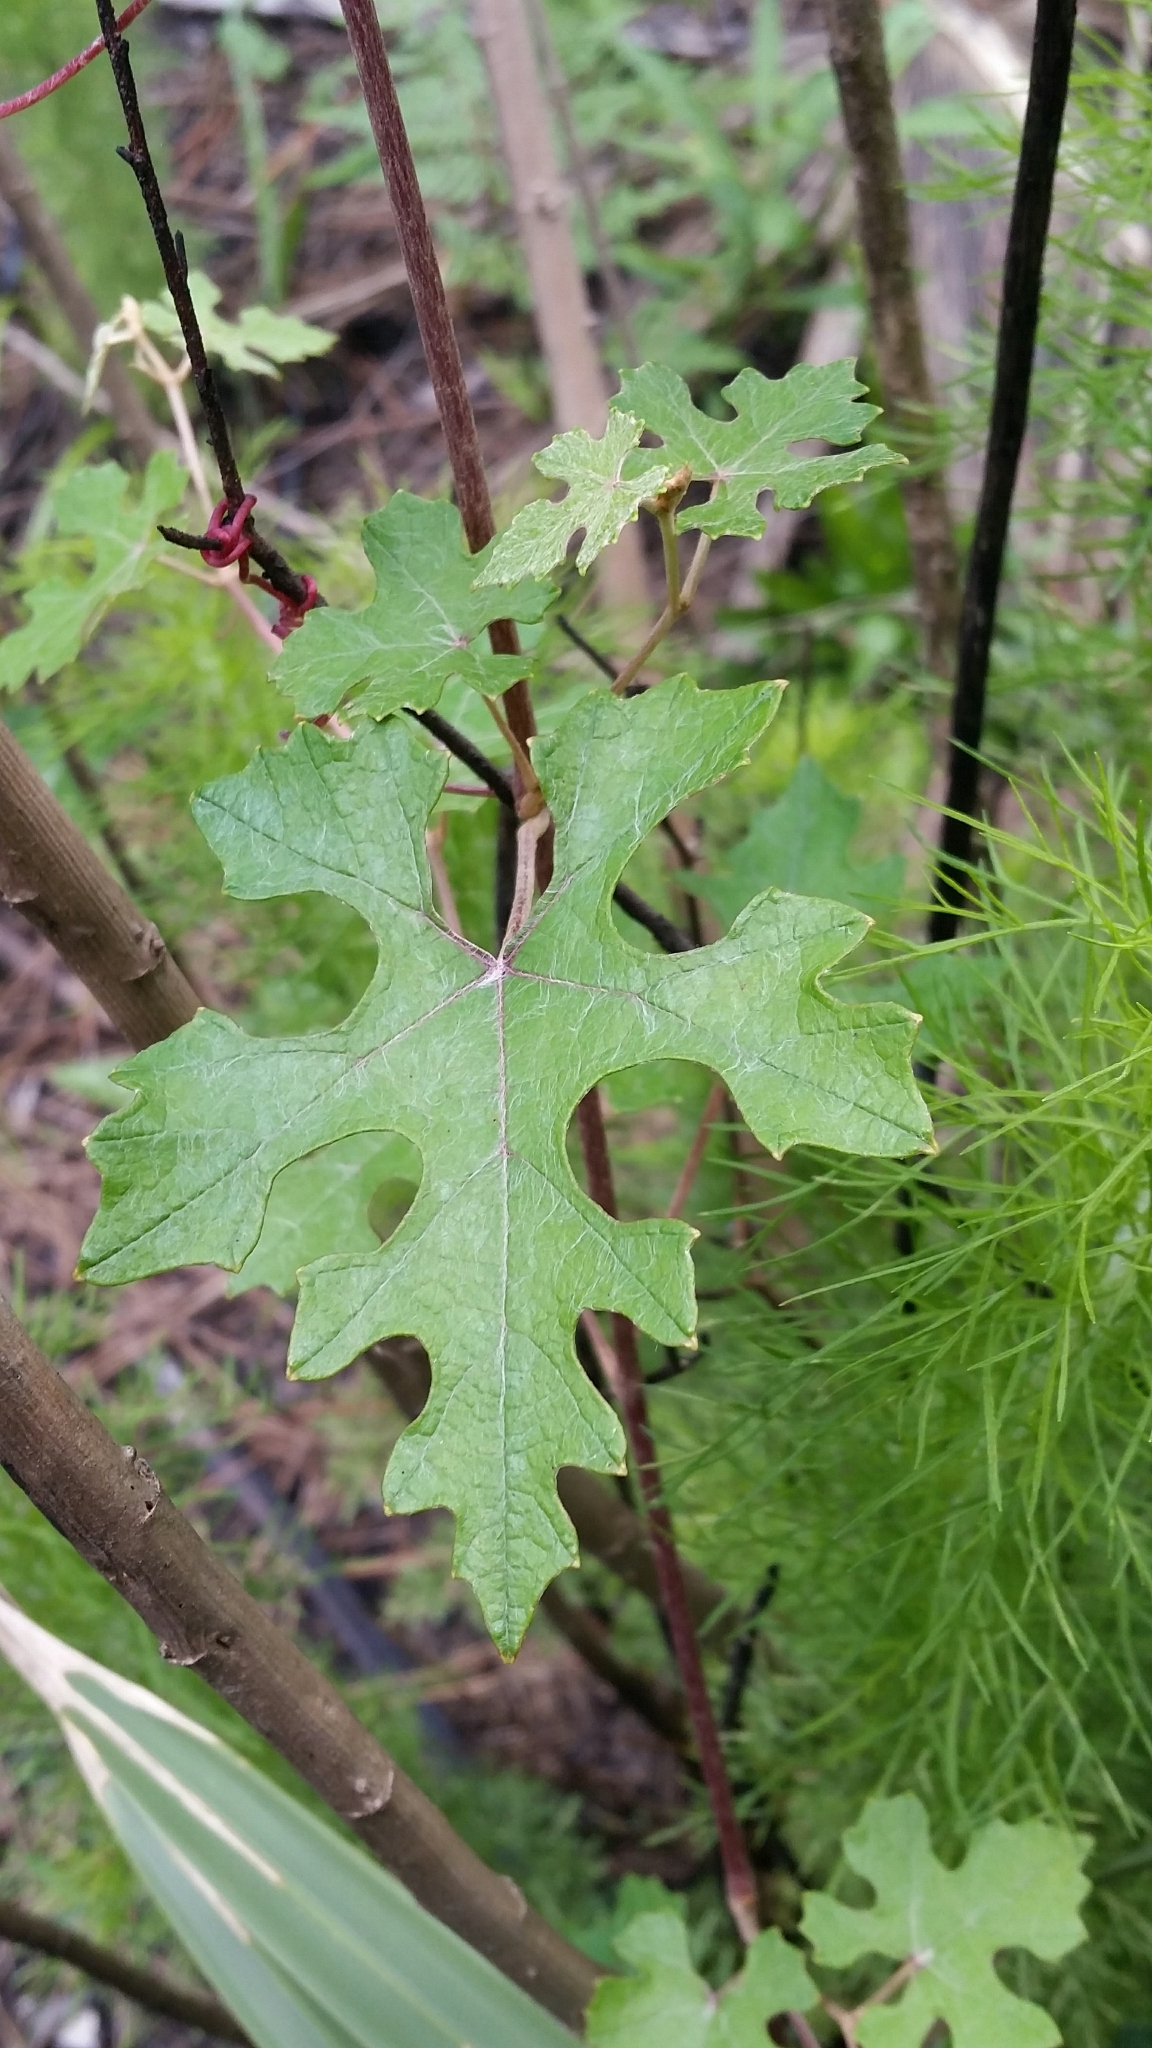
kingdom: Plantae
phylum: Tracheophyta
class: Magnoliopsida
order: Vitales
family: Vitaceae
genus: Vitis
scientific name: Vitis shuttleworthii
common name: Caloosa grape
